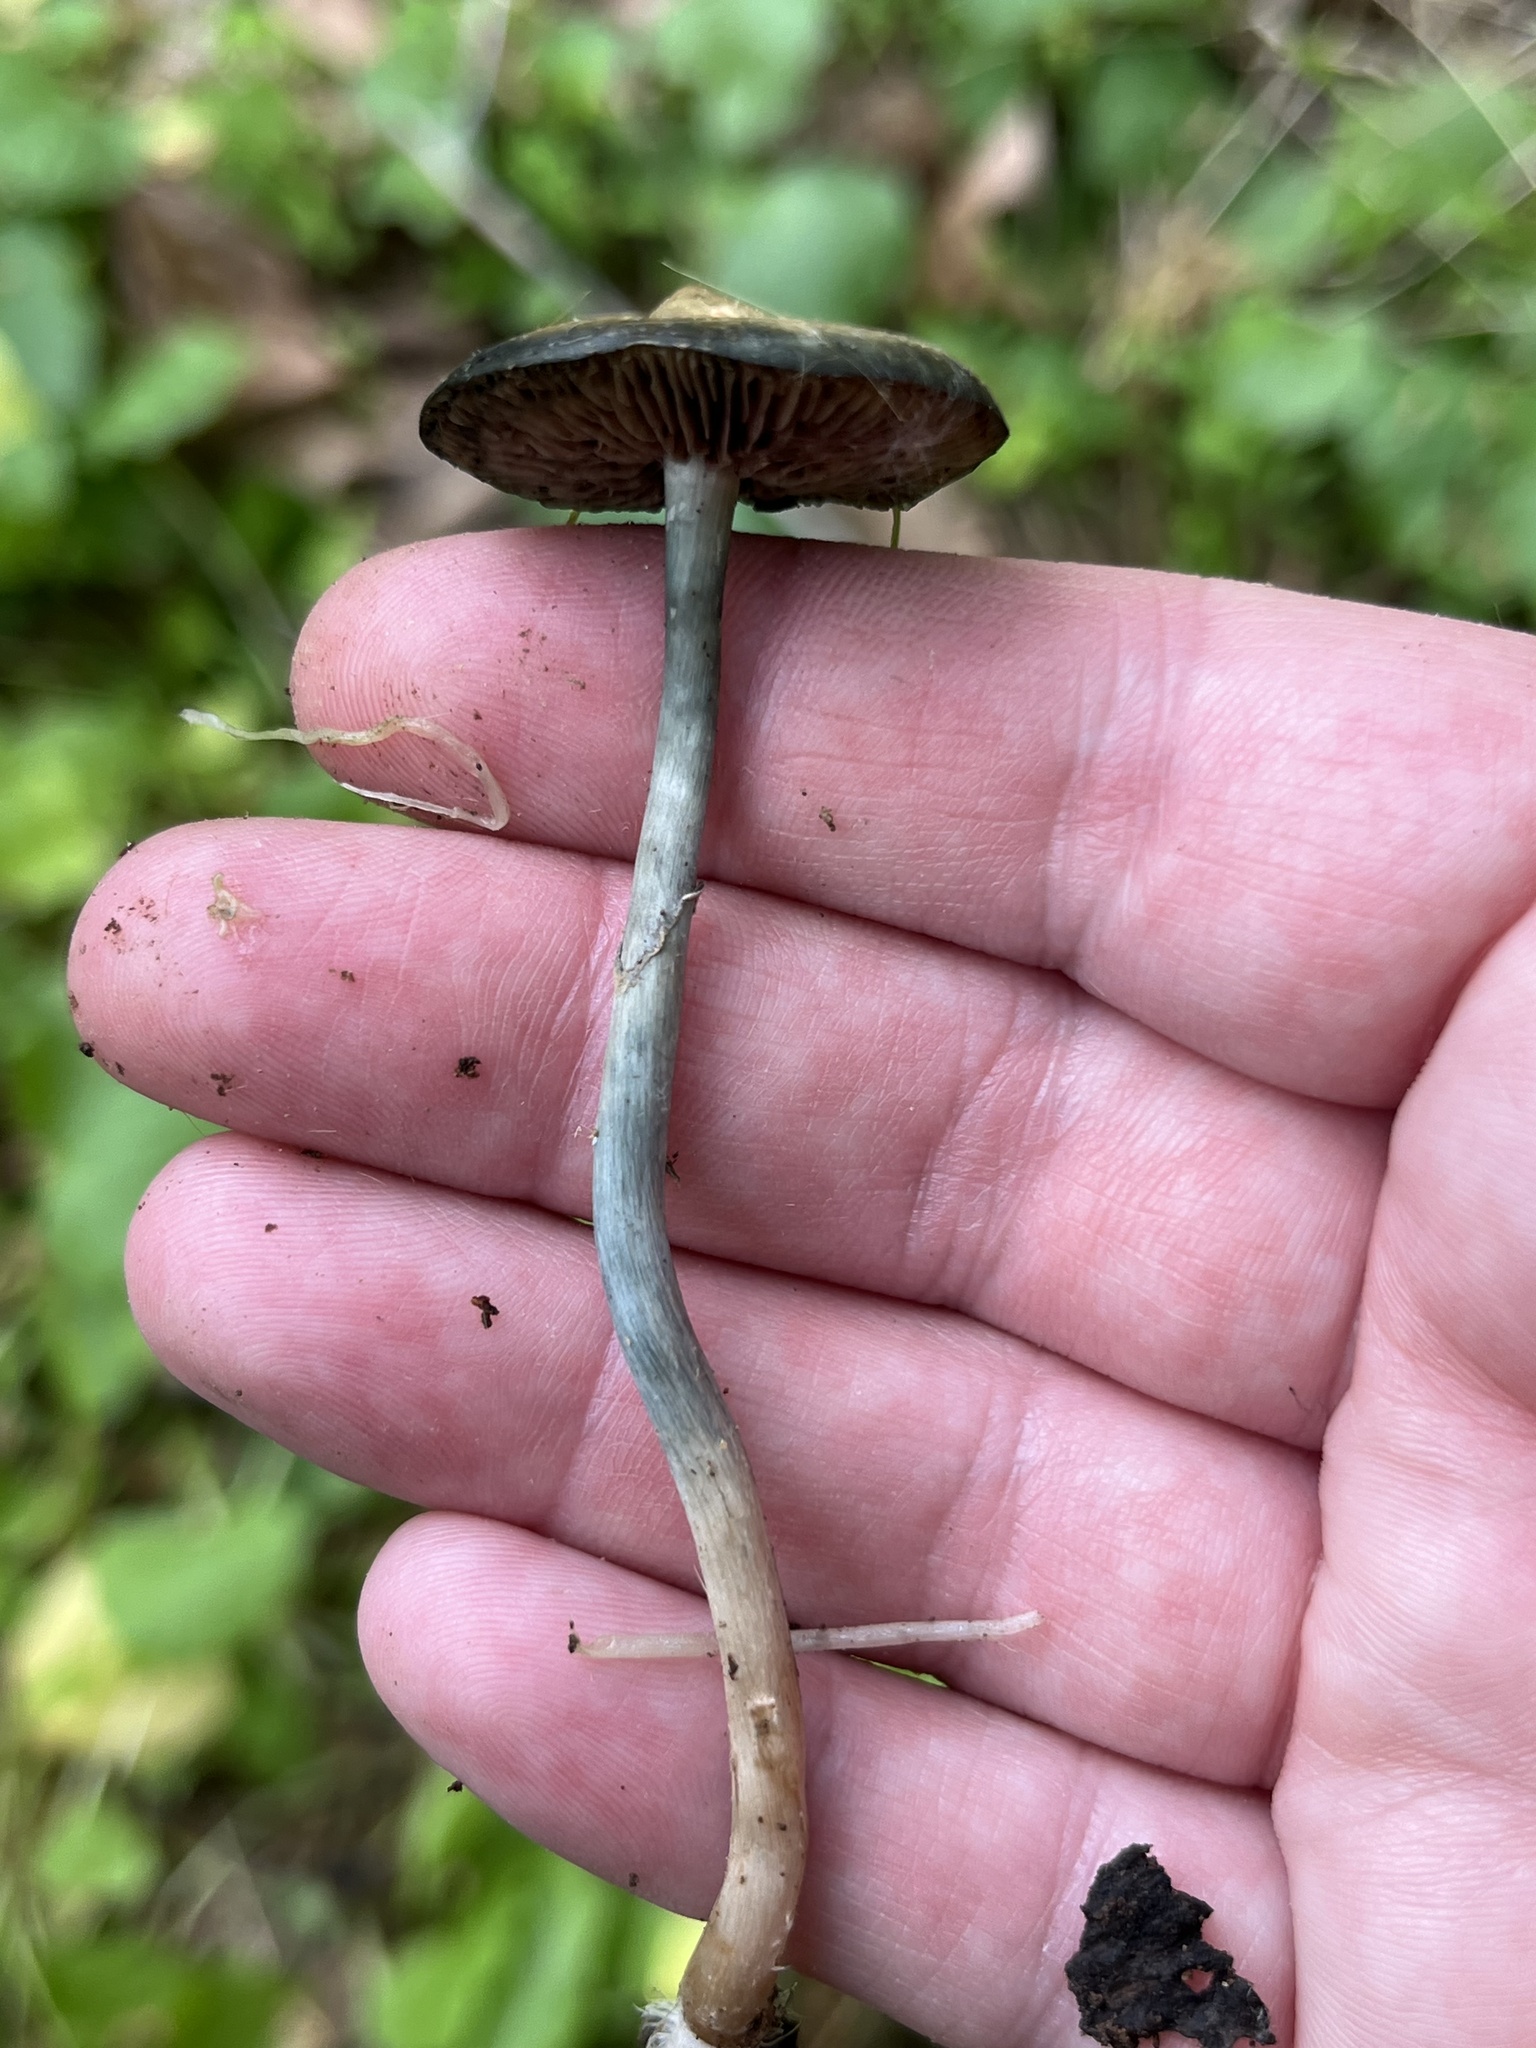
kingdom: Fungi
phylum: Basidiomycota
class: Agaricomycetes
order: Agaricales
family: Hymenogastraceae
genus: Psilocybe
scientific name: Psilocybe ovoideocystidiata
